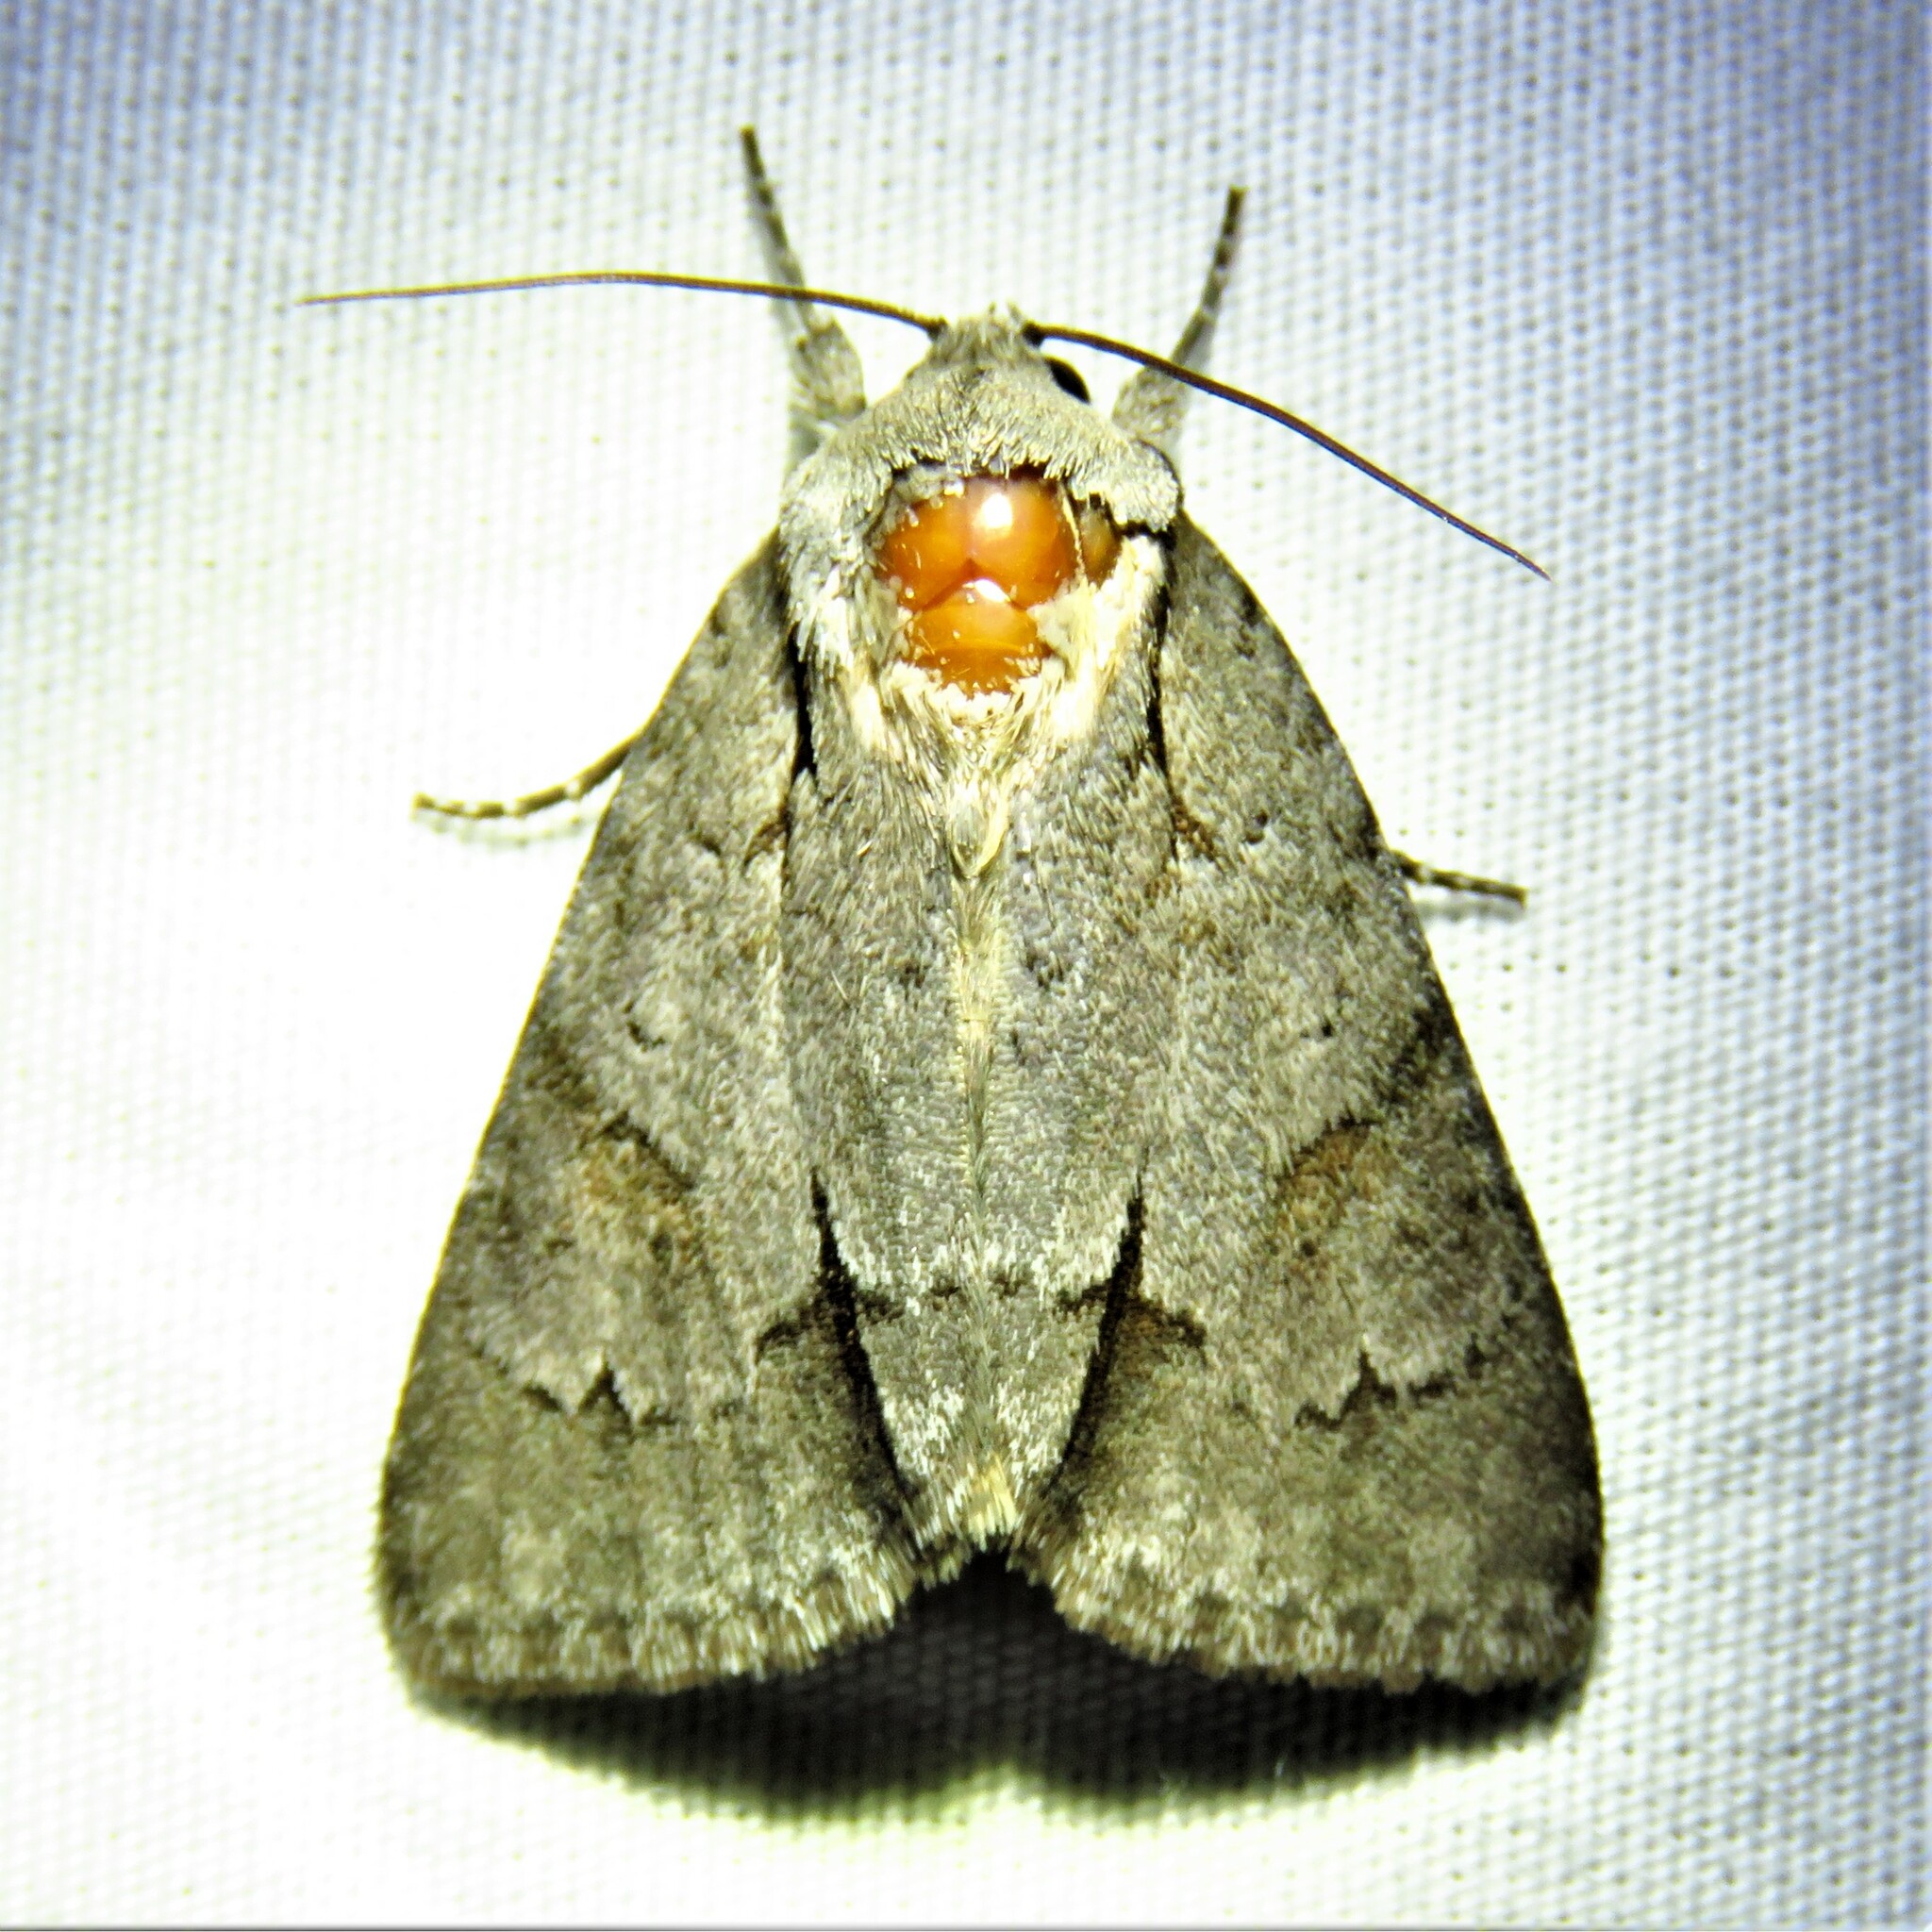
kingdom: Animalia
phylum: Arthropoda
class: Insecta
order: Lepidoptera
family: Noctuidae
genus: Acronicta
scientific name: Acronicta tritona
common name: Triton dagger
